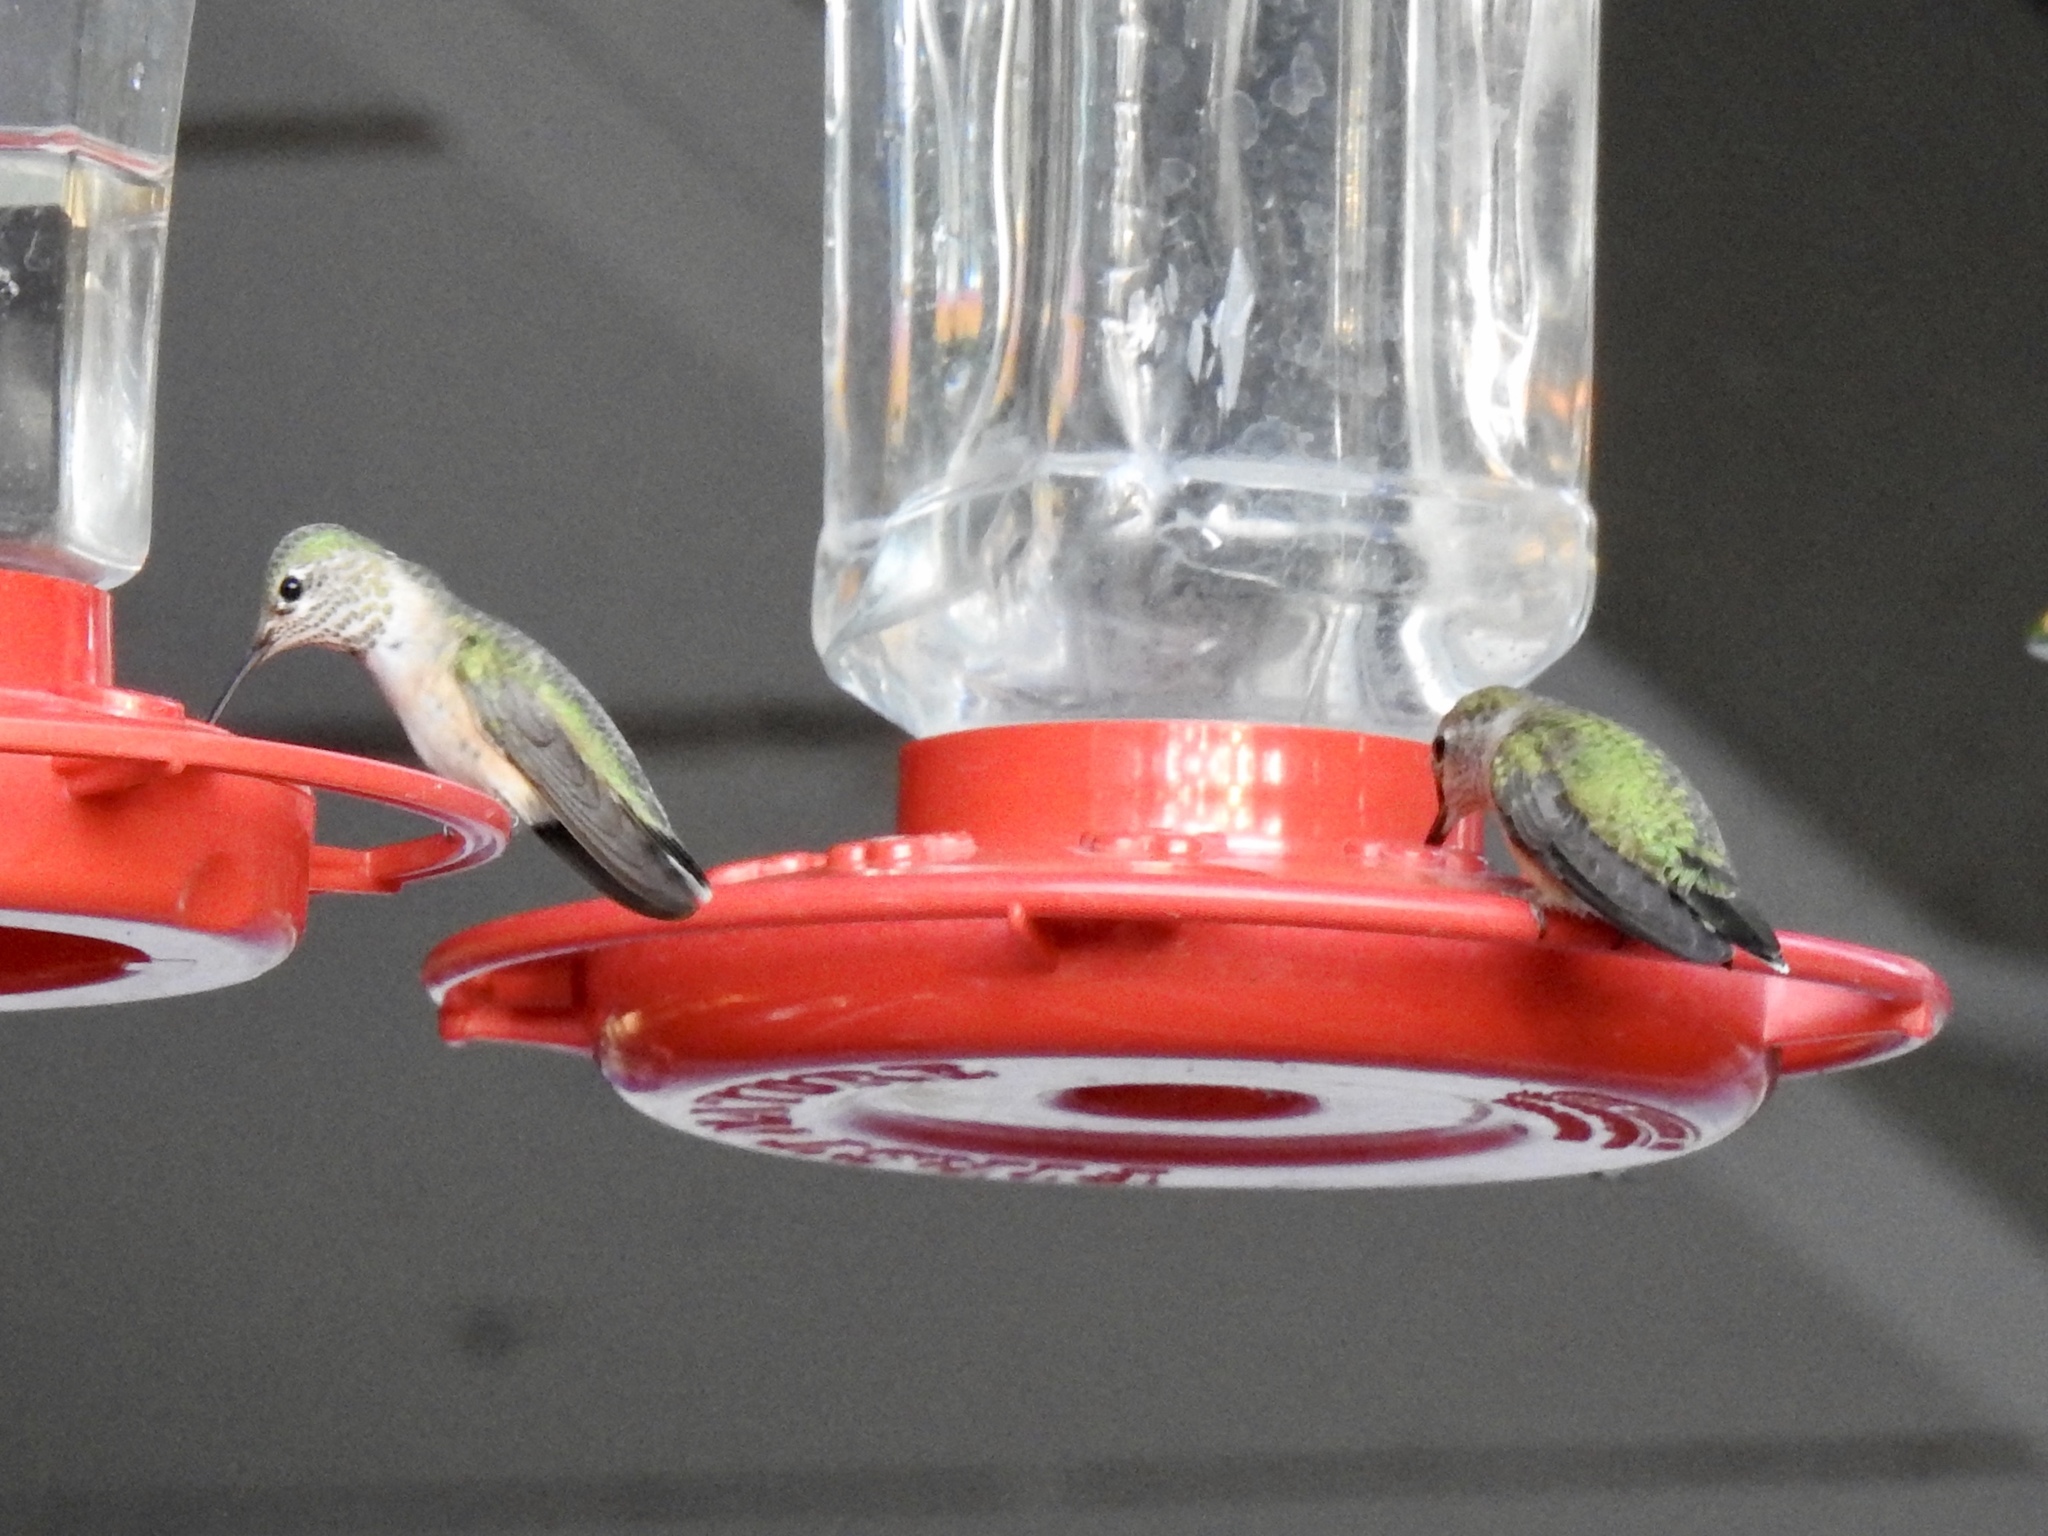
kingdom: Animalia
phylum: Chordata
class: Aves
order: Apodiformes
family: Trochilidae
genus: Selasphorus
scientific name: Selasphorus platycercus
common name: Broad-tailed hummingbird
